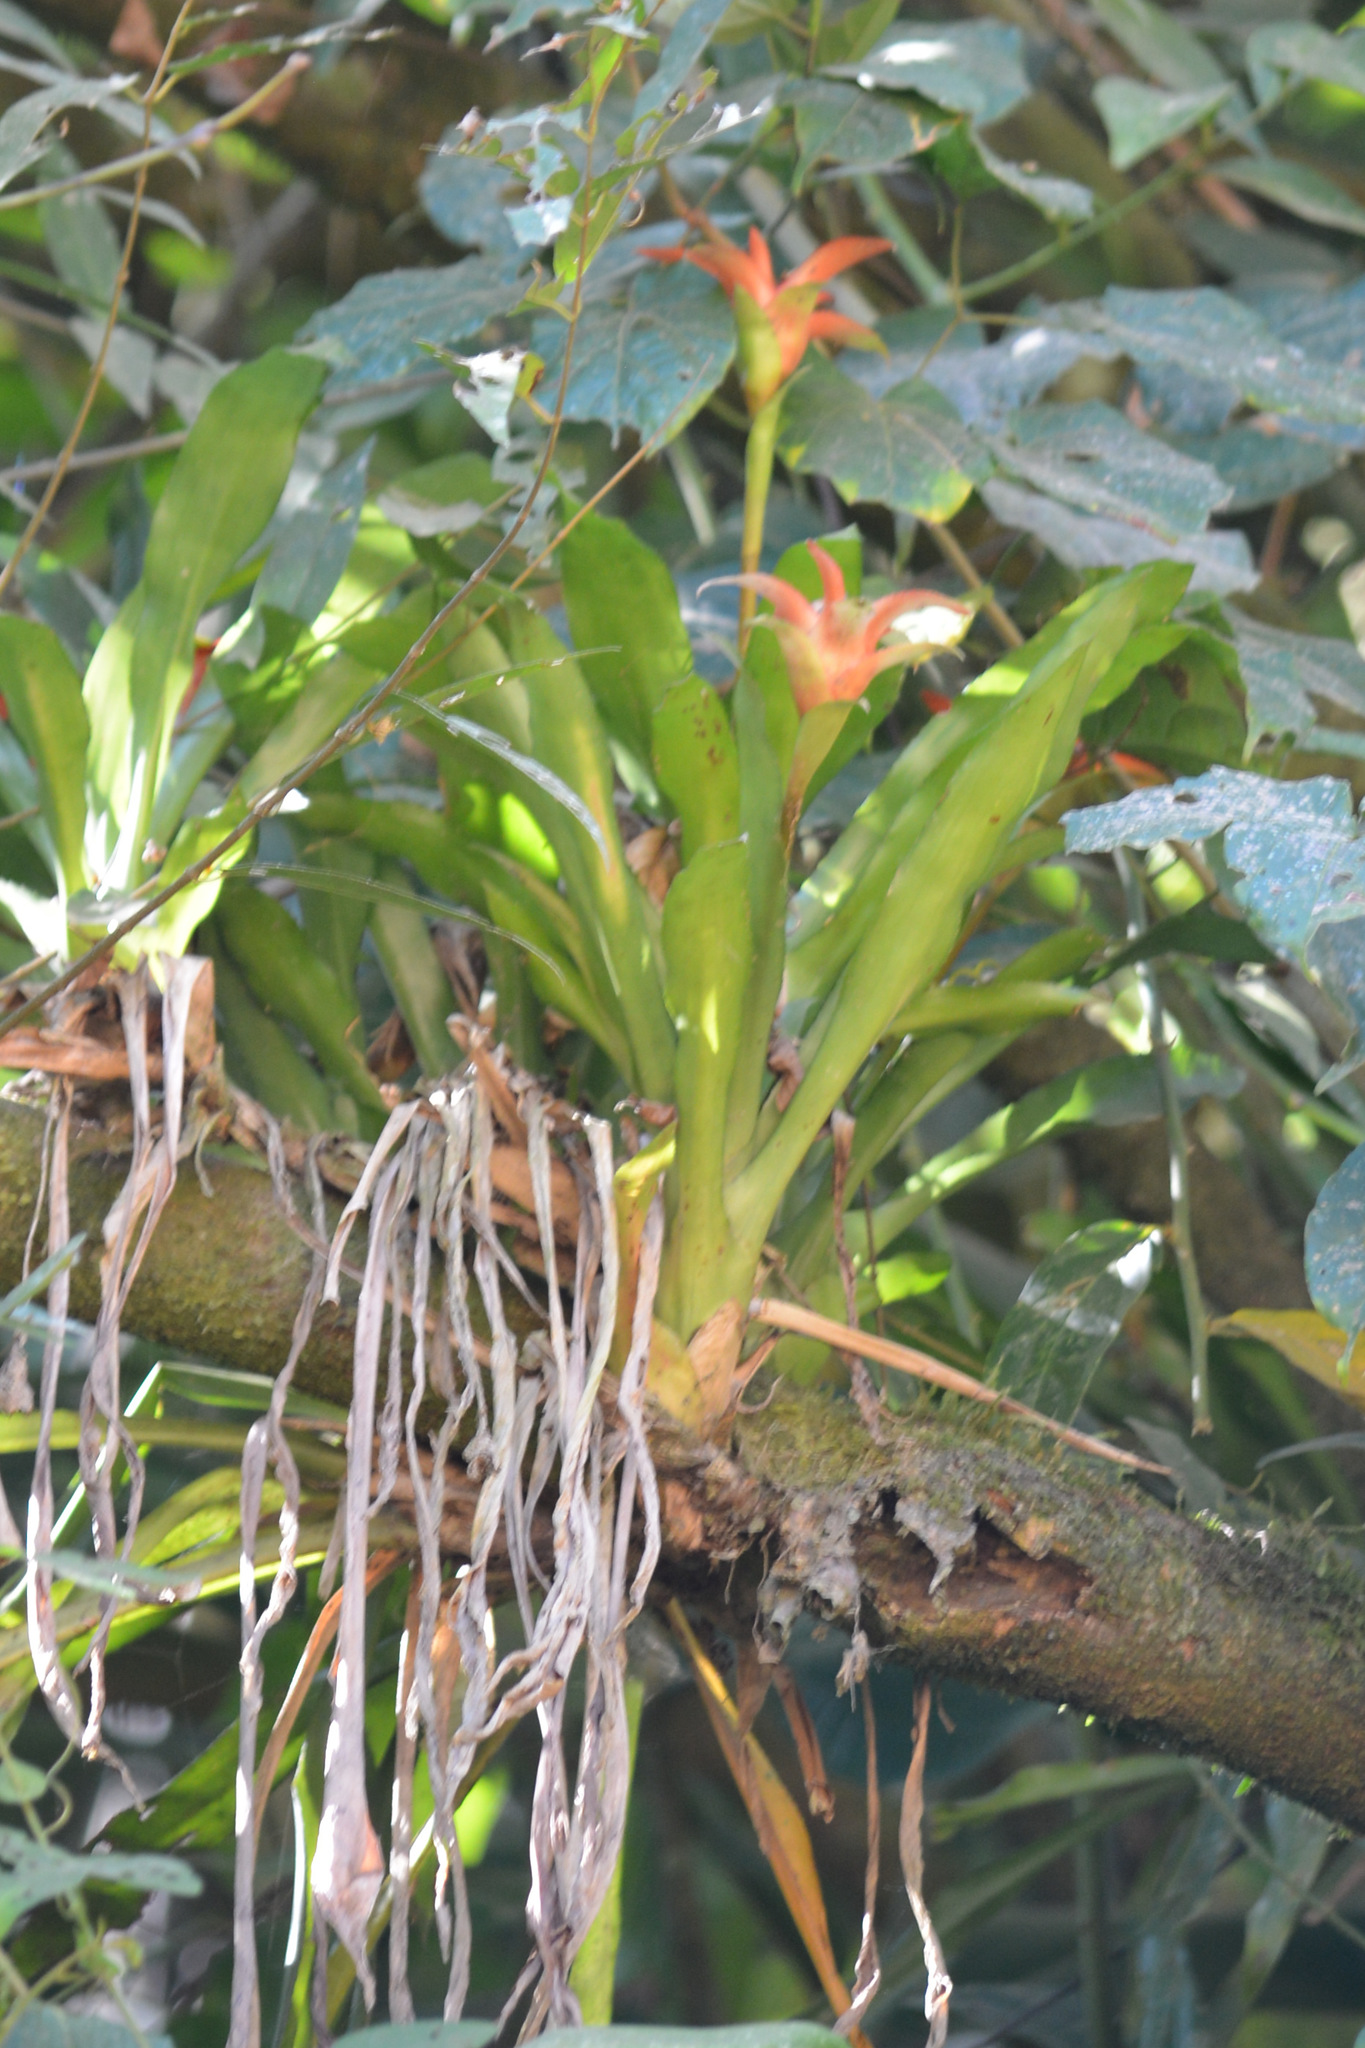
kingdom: Plantae
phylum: Tracheophyta
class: Liliopsida
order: Poales
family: Bromeliaceae
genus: Canistropsis
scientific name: Canistropsis billbergioides
